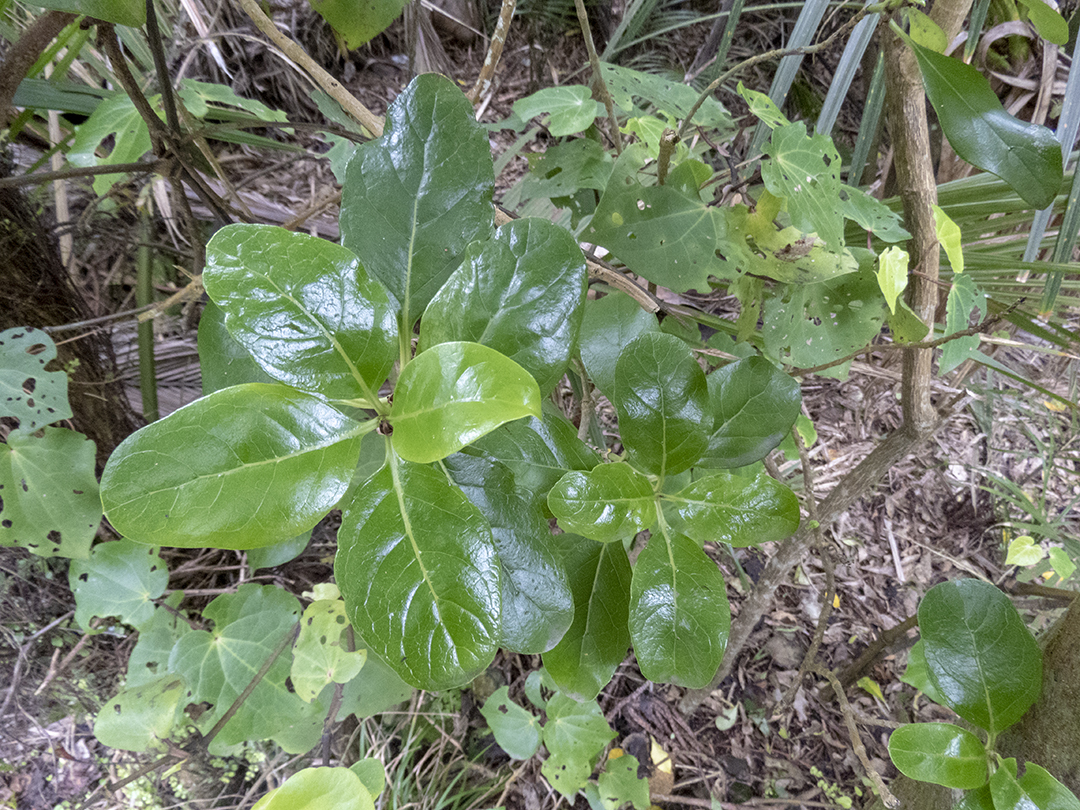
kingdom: Plantae
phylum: Tracheophyta
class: Magnoliopsida
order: Gentianales
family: Rubiaceae
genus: Coprosma
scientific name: Coprosma repens
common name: Tree bedstraw
